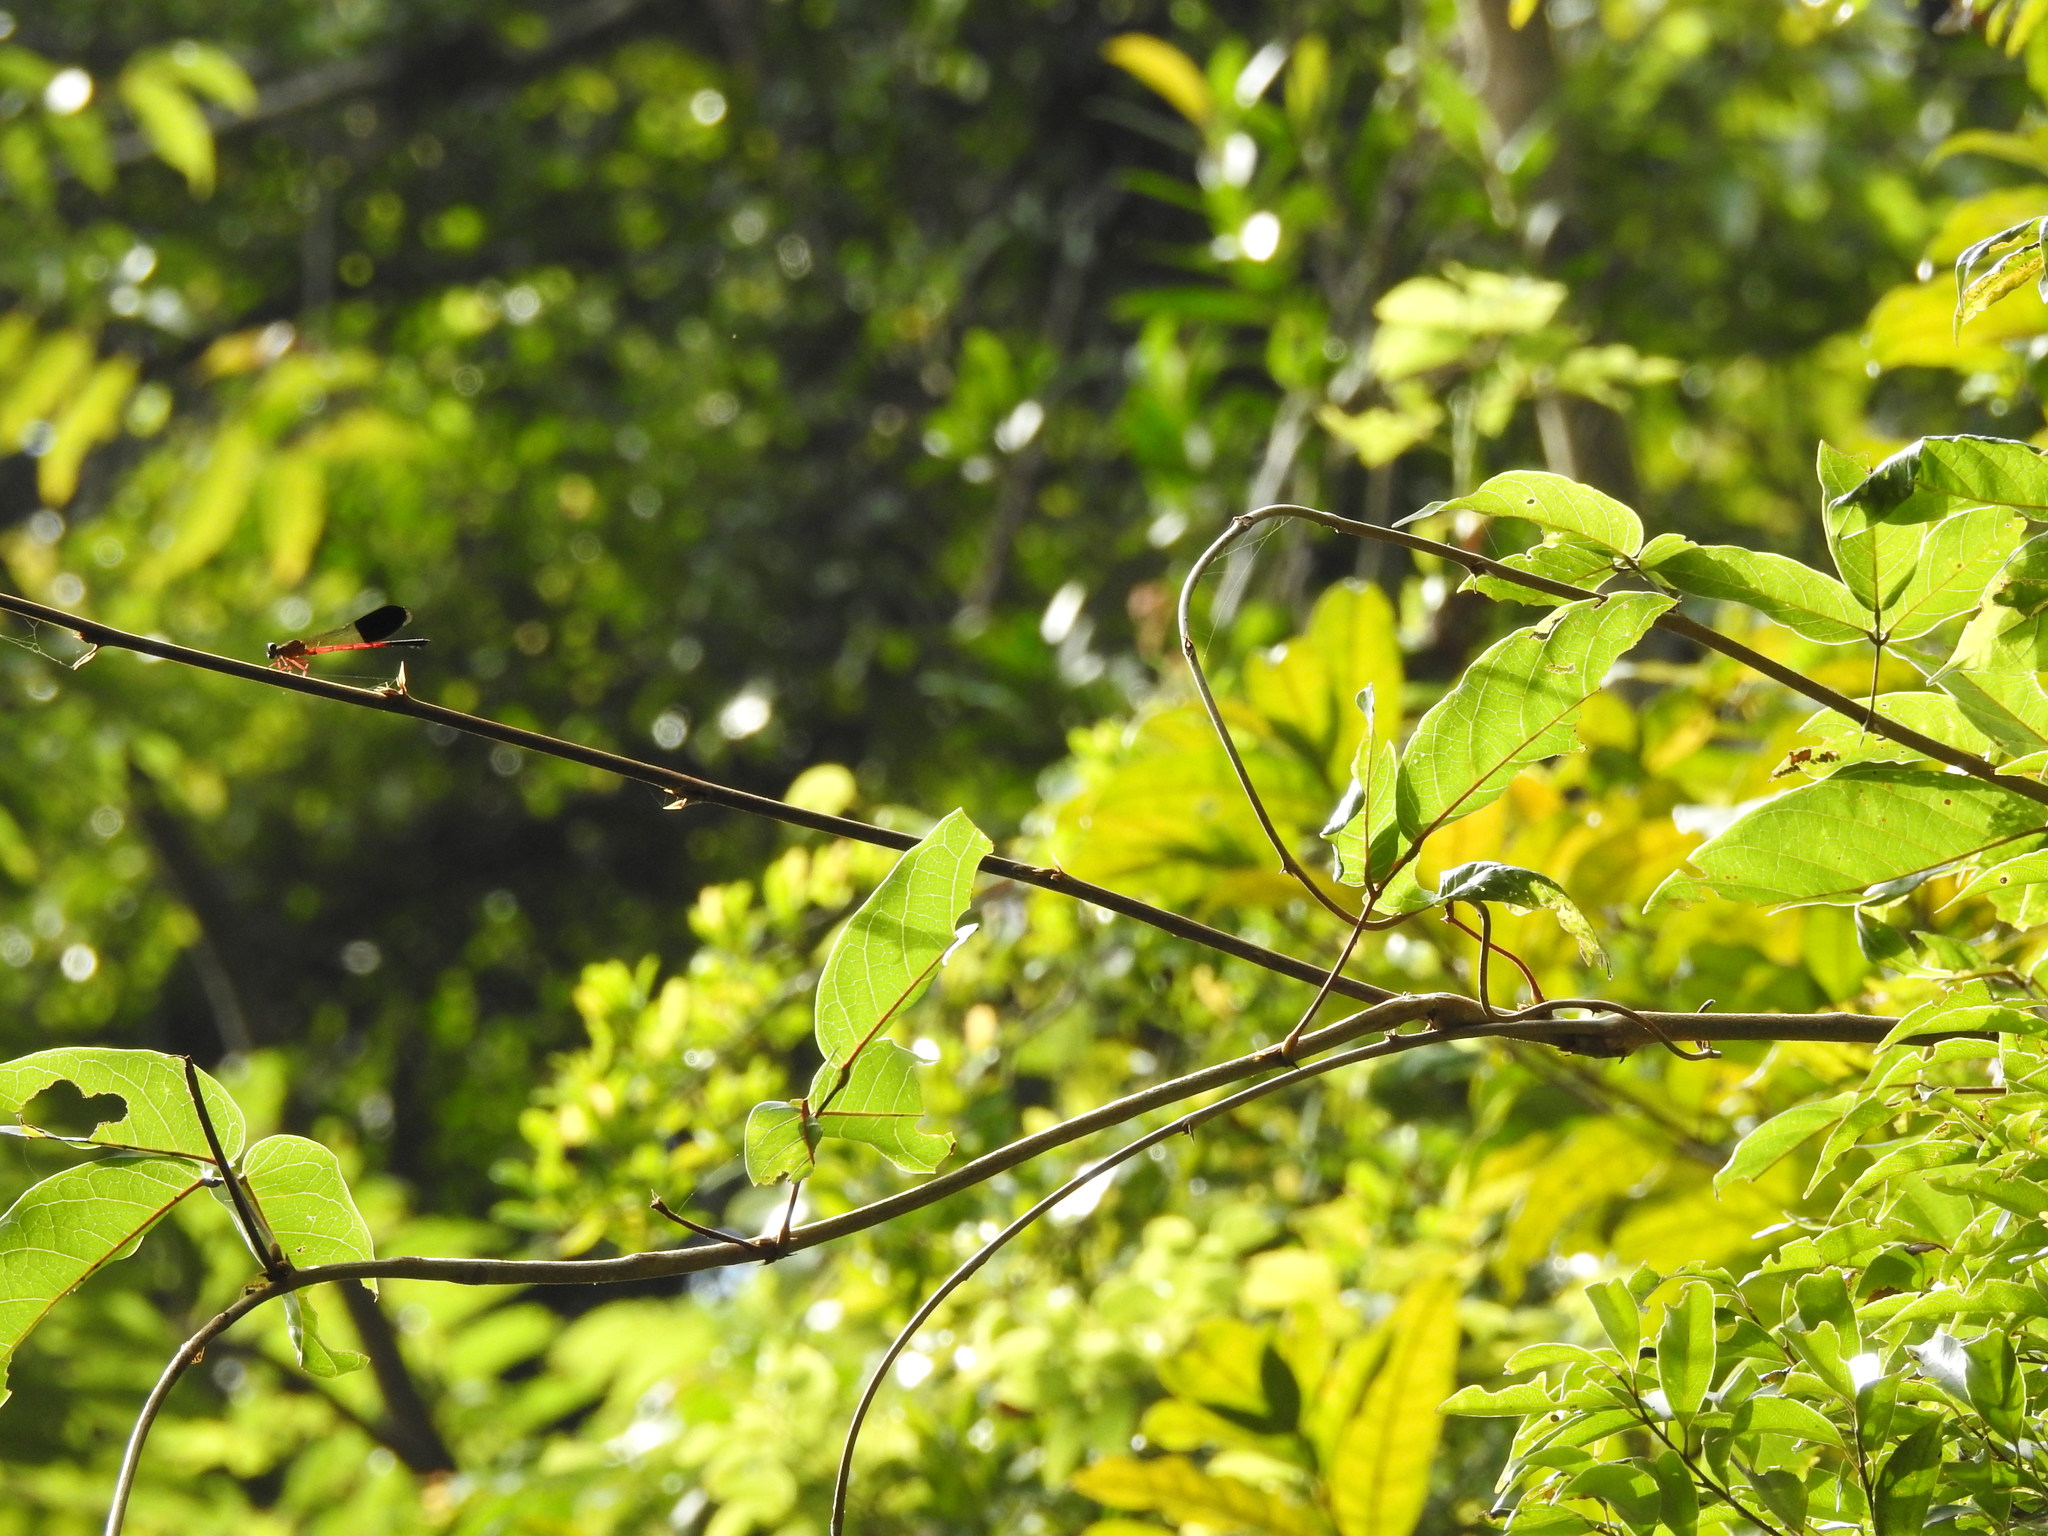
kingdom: Animalia
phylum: Arthropoda
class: Insecta
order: Odonata
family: Euphaeidae
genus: Euphaea
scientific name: Euphaea cardinalis
